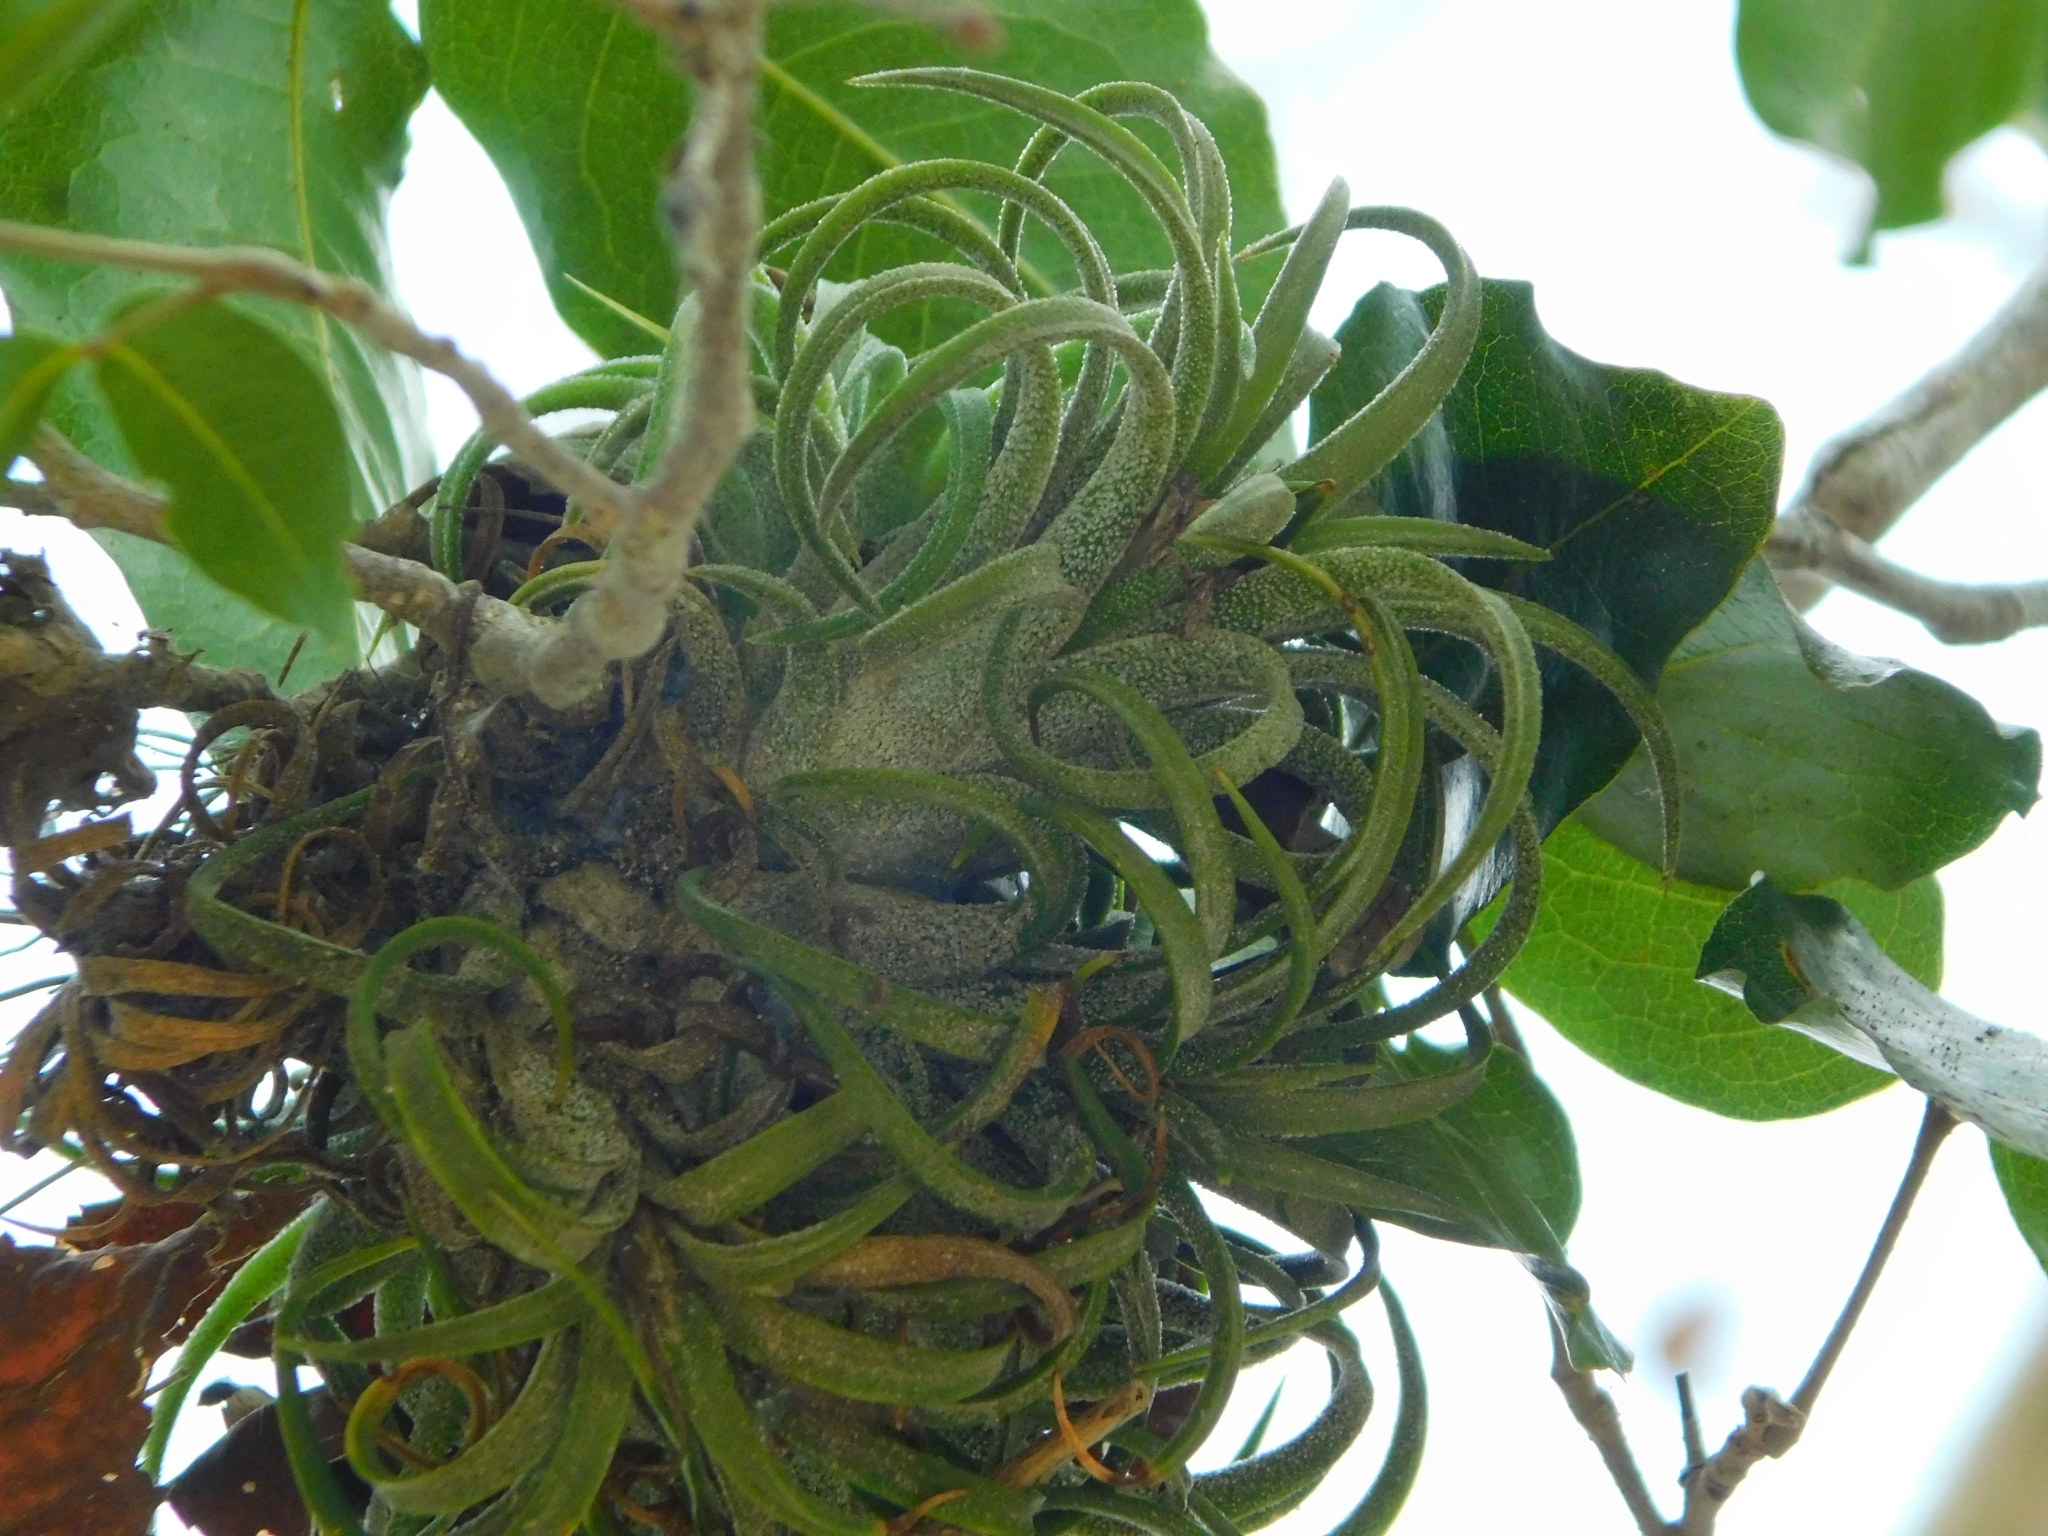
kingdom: Plantae
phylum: Tracheophyta
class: Liliopsida
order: Poales
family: Bromeliaceae
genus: Tillandsia
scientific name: Tillandsia ionantha
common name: Sky plant
